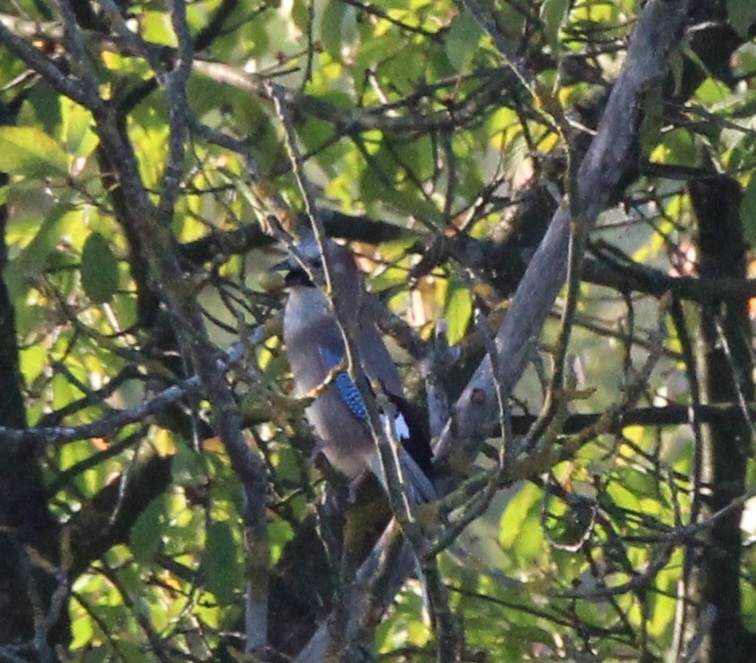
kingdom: Animalia
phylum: Chordata
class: Aves
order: Passeriformes
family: Corvidae
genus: Garrulus
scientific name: Garrulus glandarius
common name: Eurasian jay
